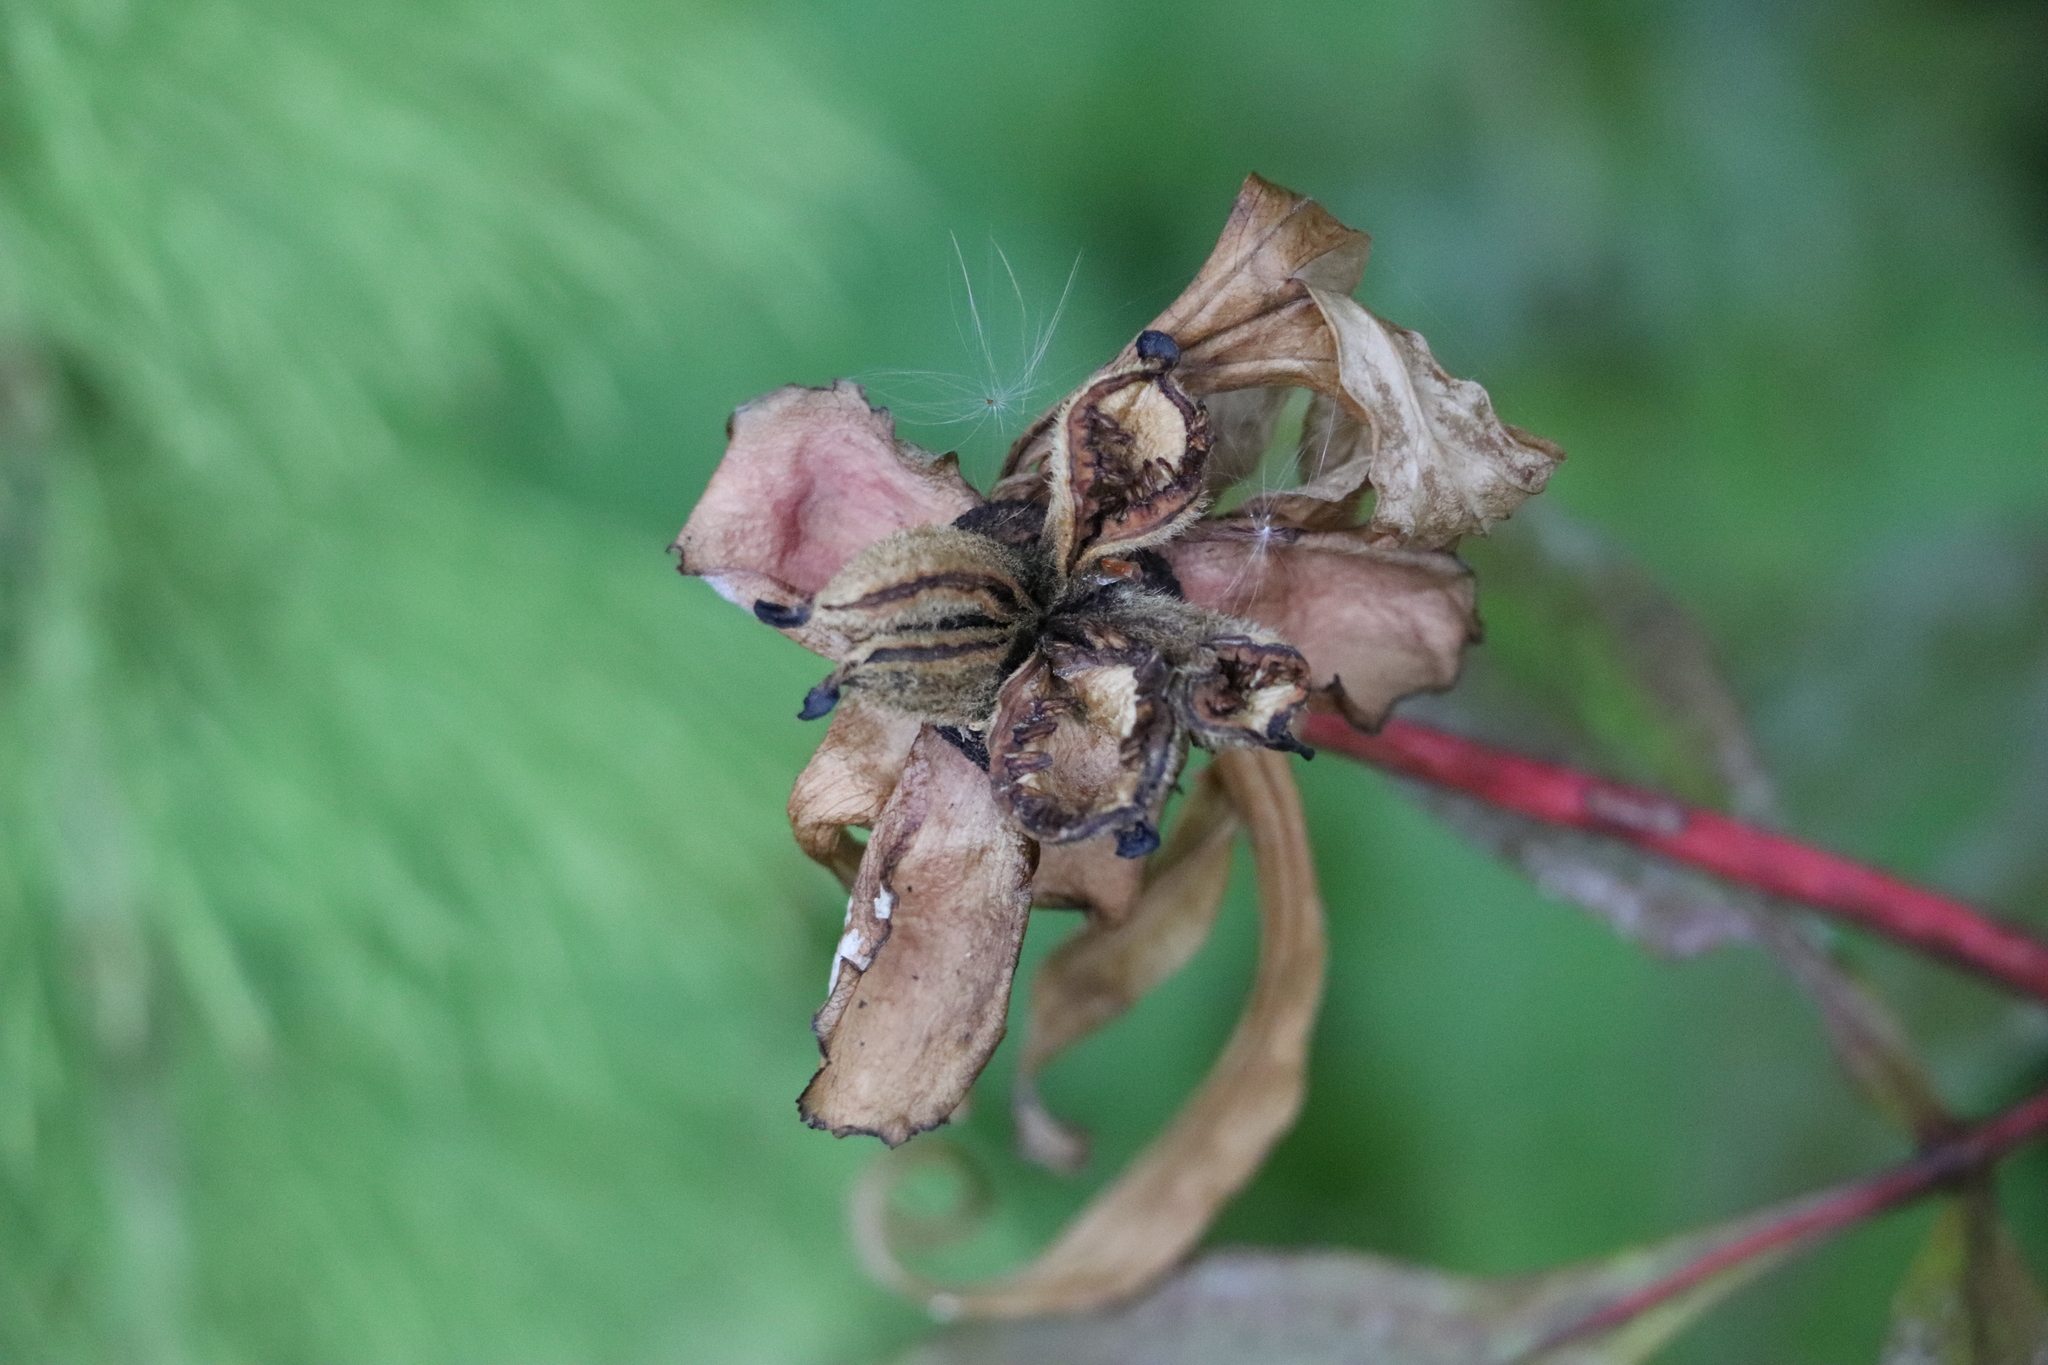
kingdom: Plantae
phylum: Tracheophyta
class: Magnoliopsida
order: Saxifragales
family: Paeoniaceae
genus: Paeonia
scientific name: Paeonia anomala
